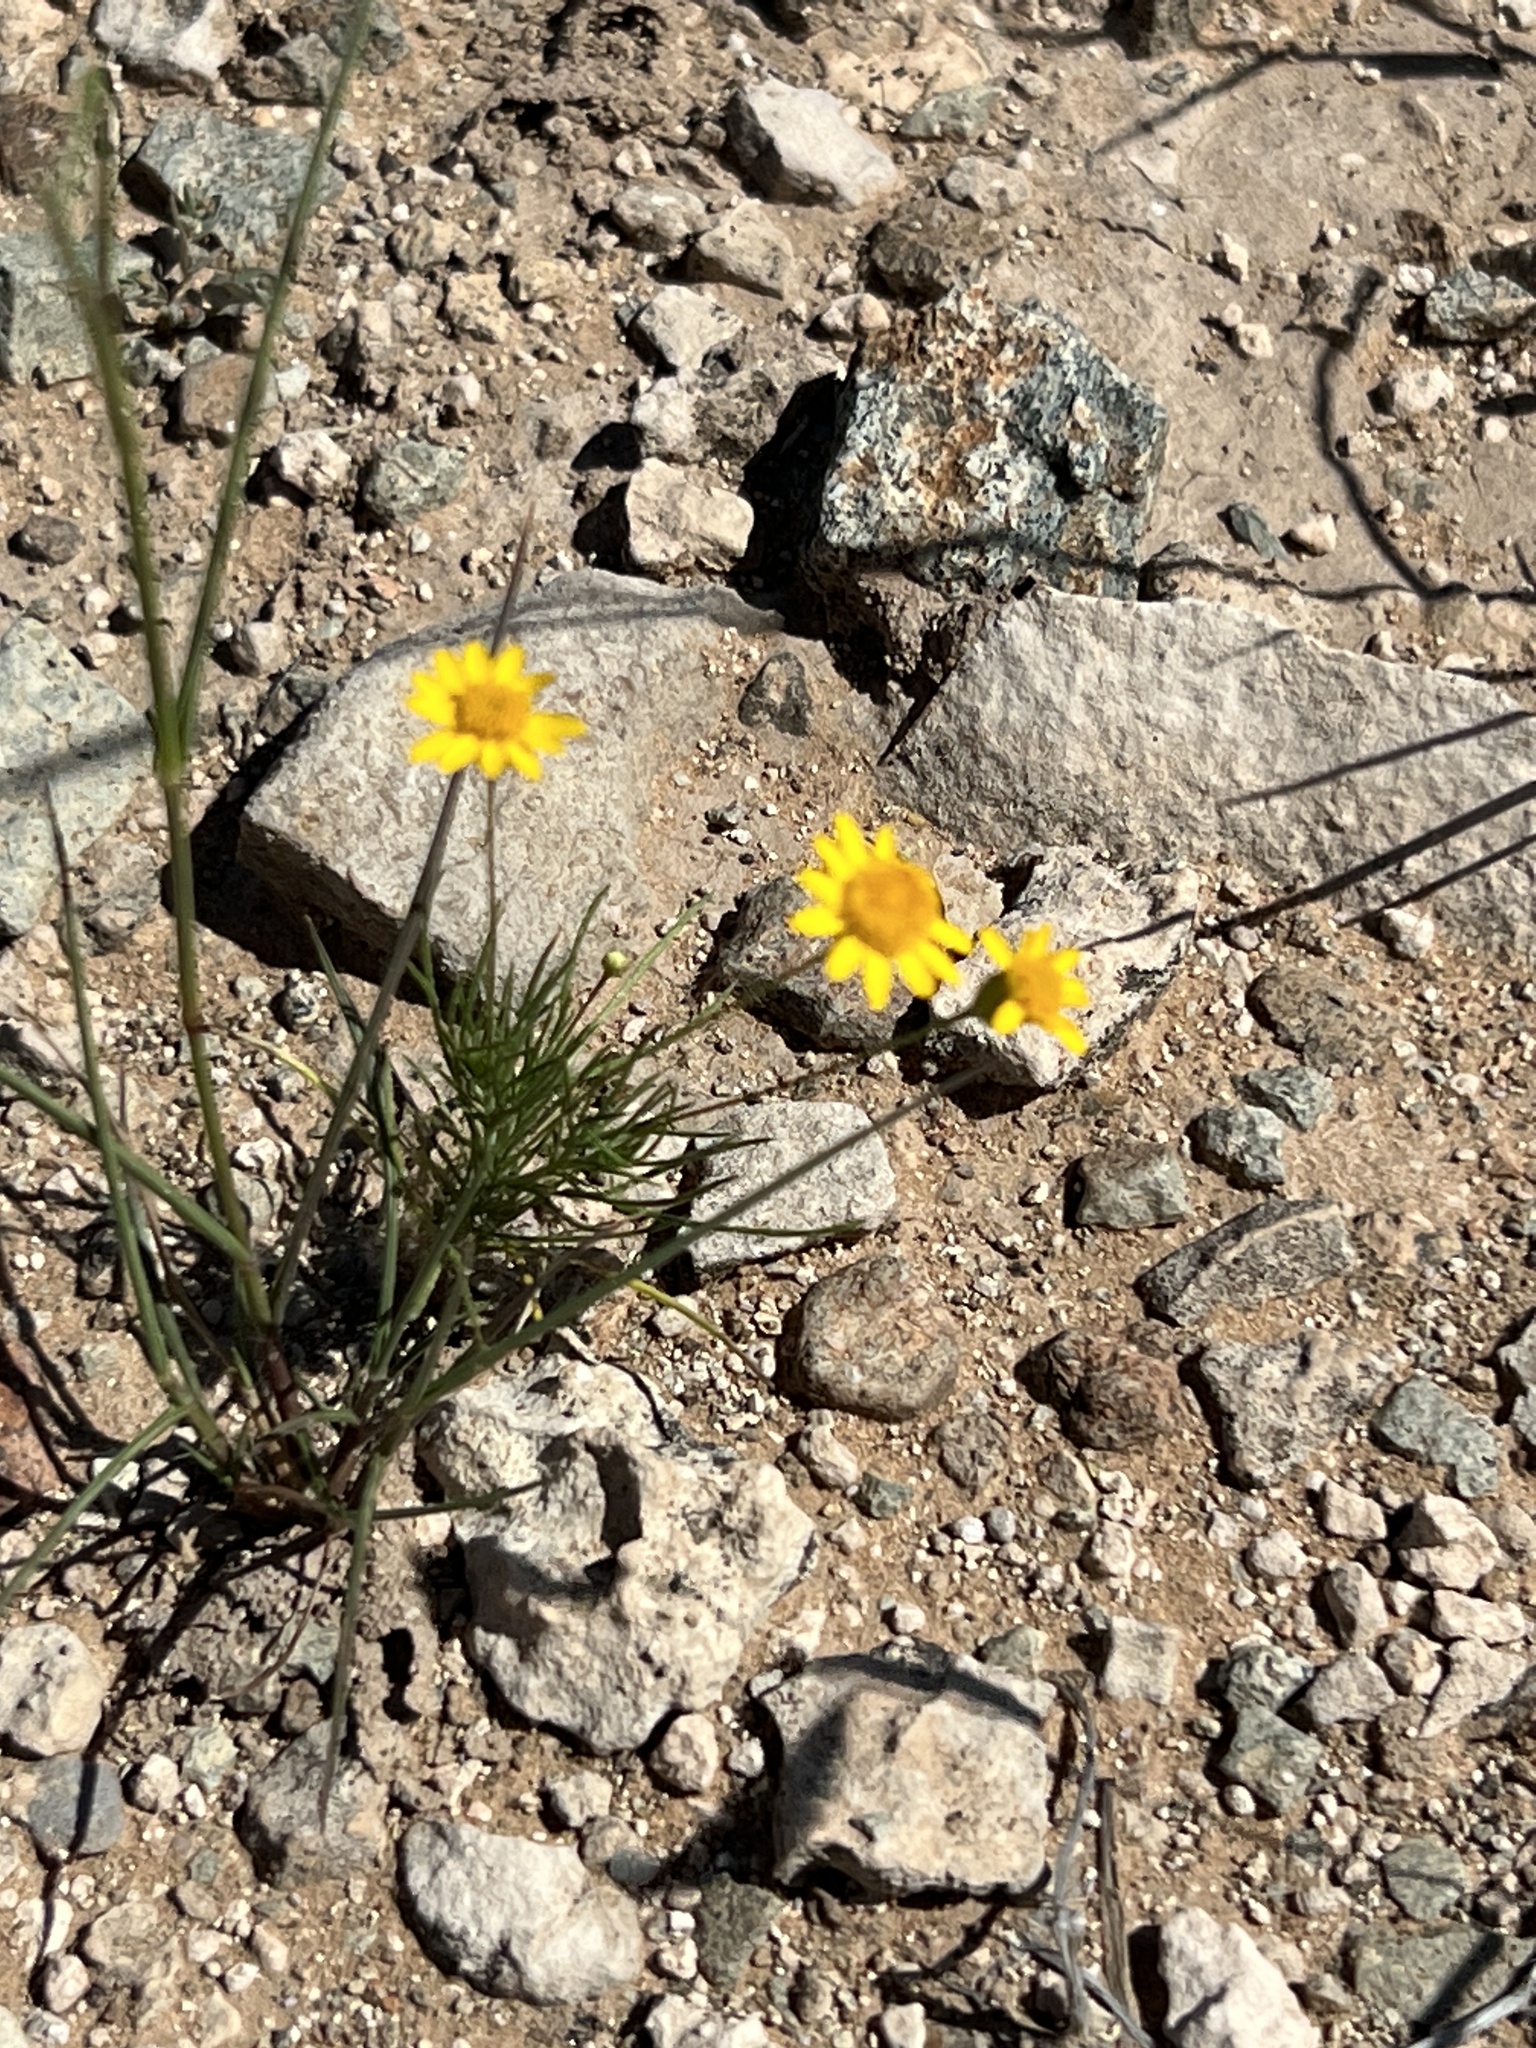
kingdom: Plantae
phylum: Tracheophyta
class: Magnoliopsida
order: Asterales
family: Asteraceae
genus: Thymophylla
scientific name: Thymophylla pentachaeta
